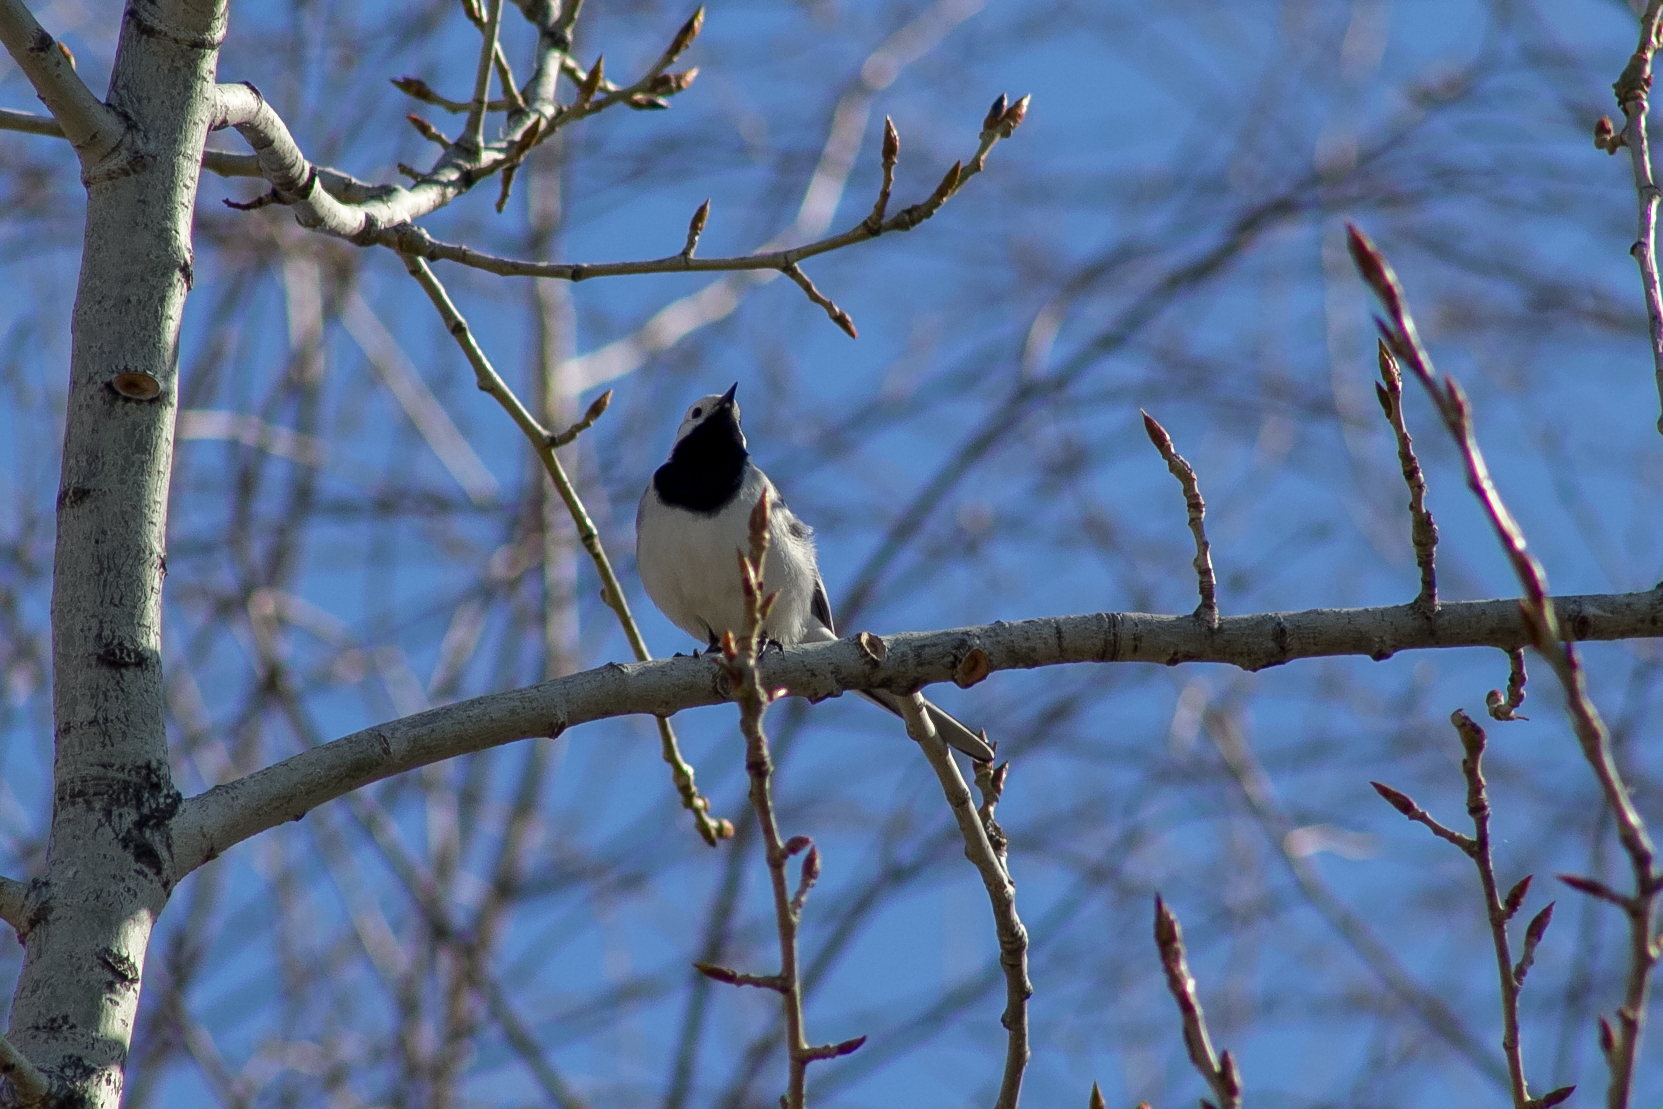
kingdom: Animalia
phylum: Chordata
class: Aves
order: Passeriformes
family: Motacillidae
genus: Motacilla
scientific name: Motacilla alba
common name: White wagtail
